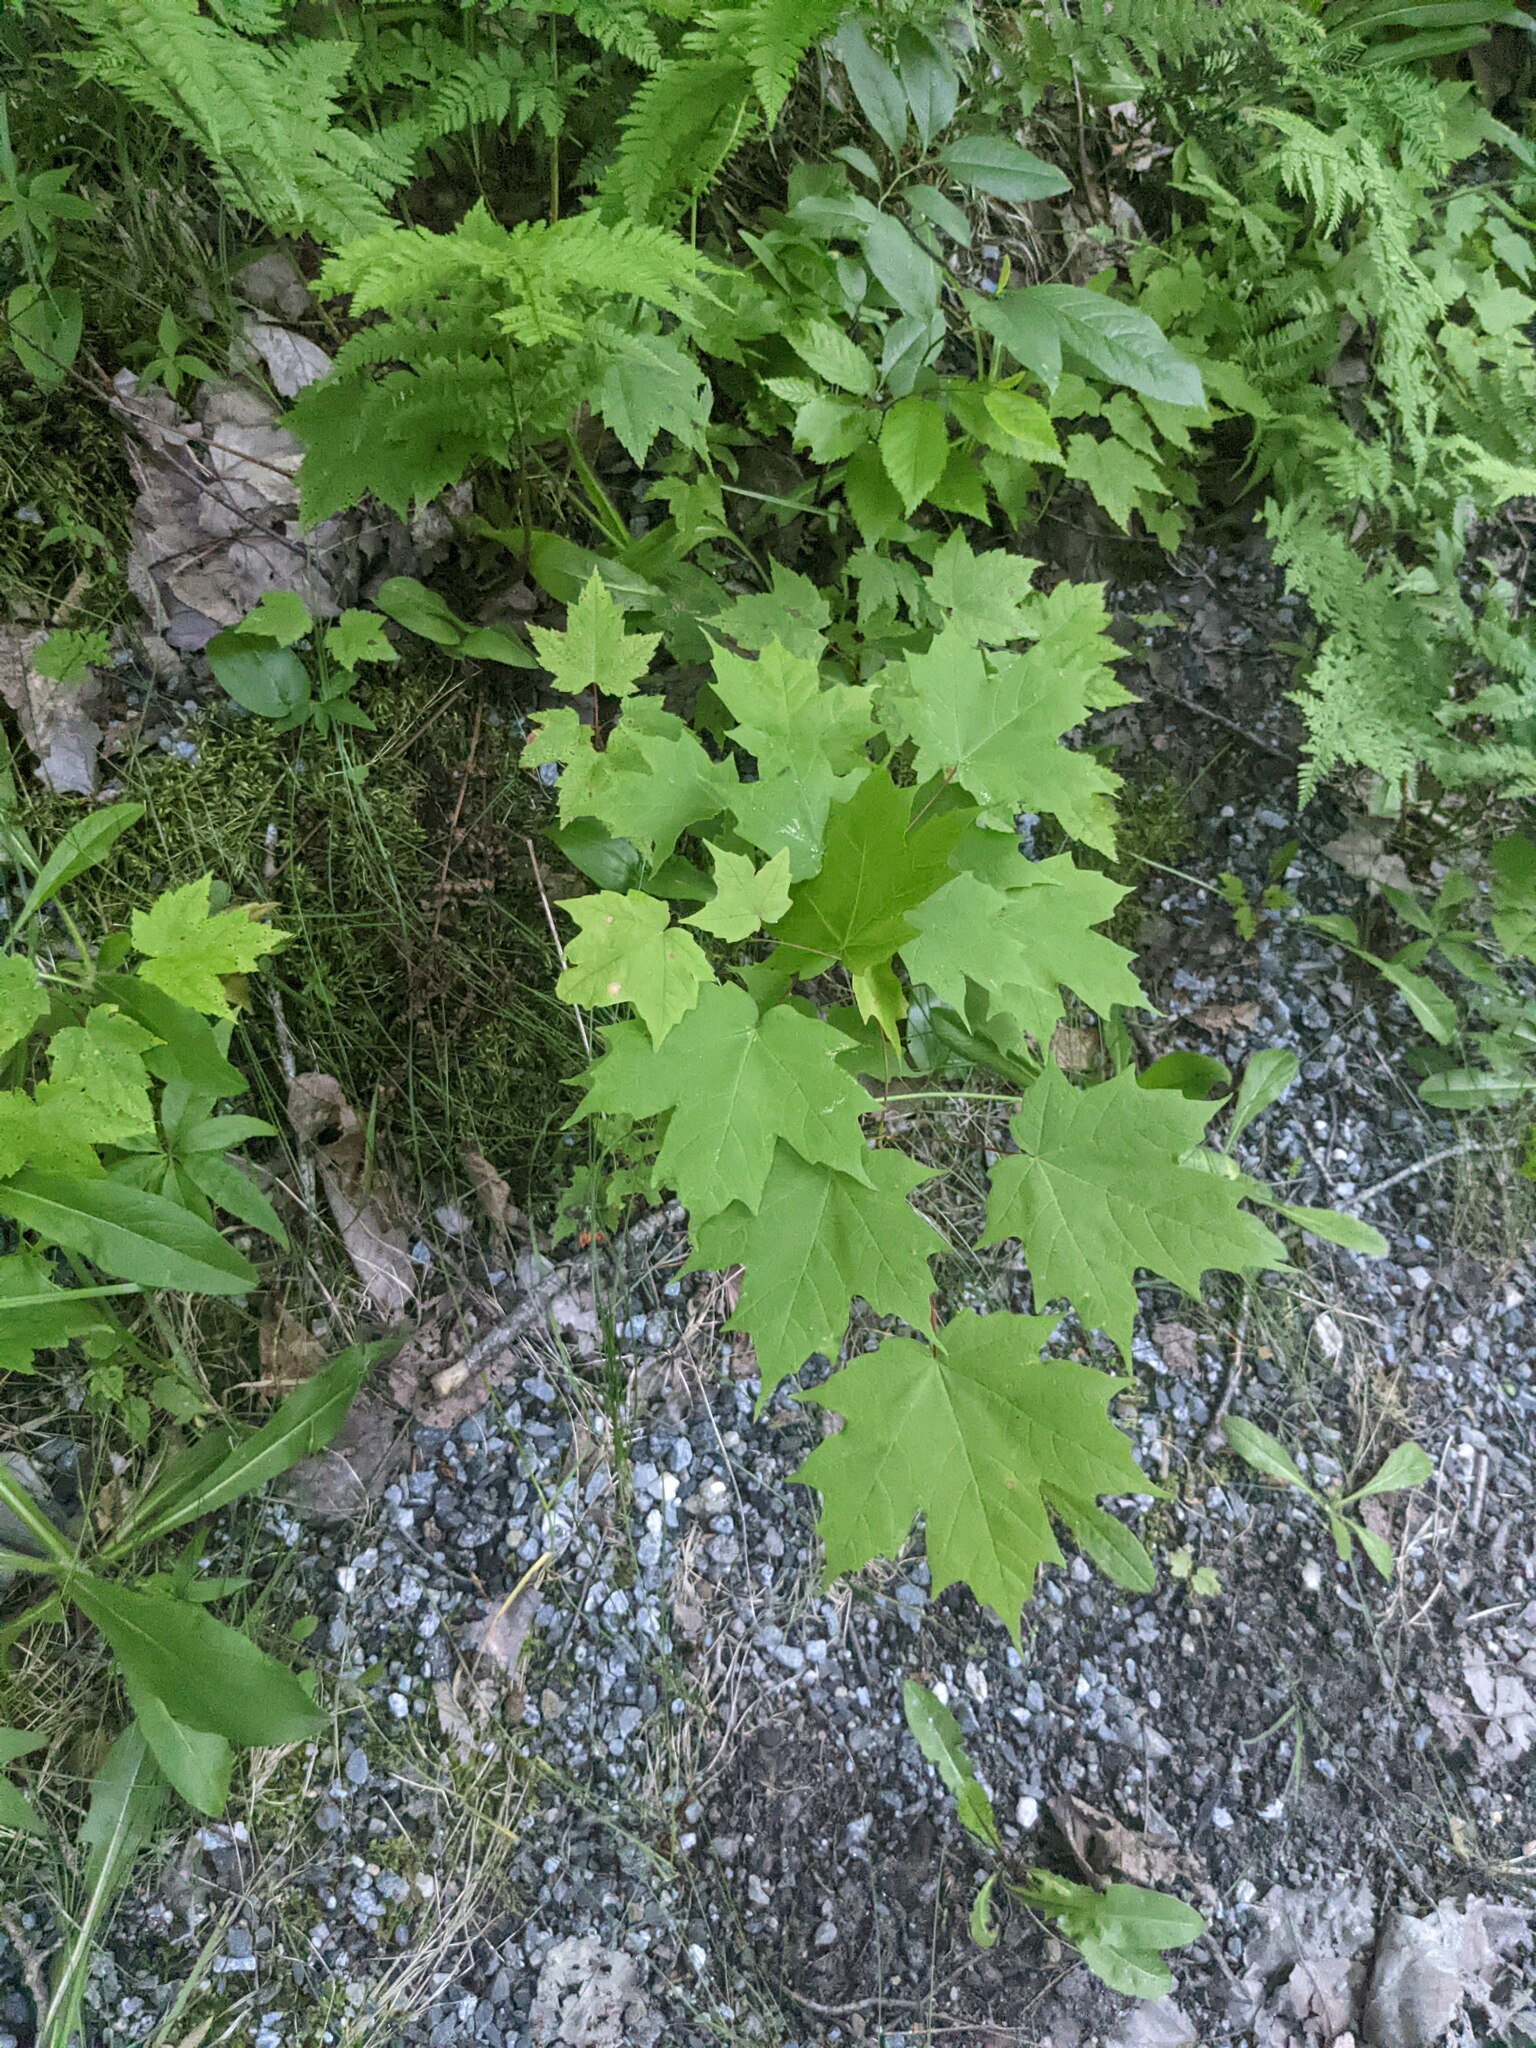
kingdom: Plantae
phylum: Tracheophyta
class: Magnoliopsida
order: Sapindales
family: Sapindaceae
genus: Acer
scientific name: Acer saccharum
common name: Sugar maple
